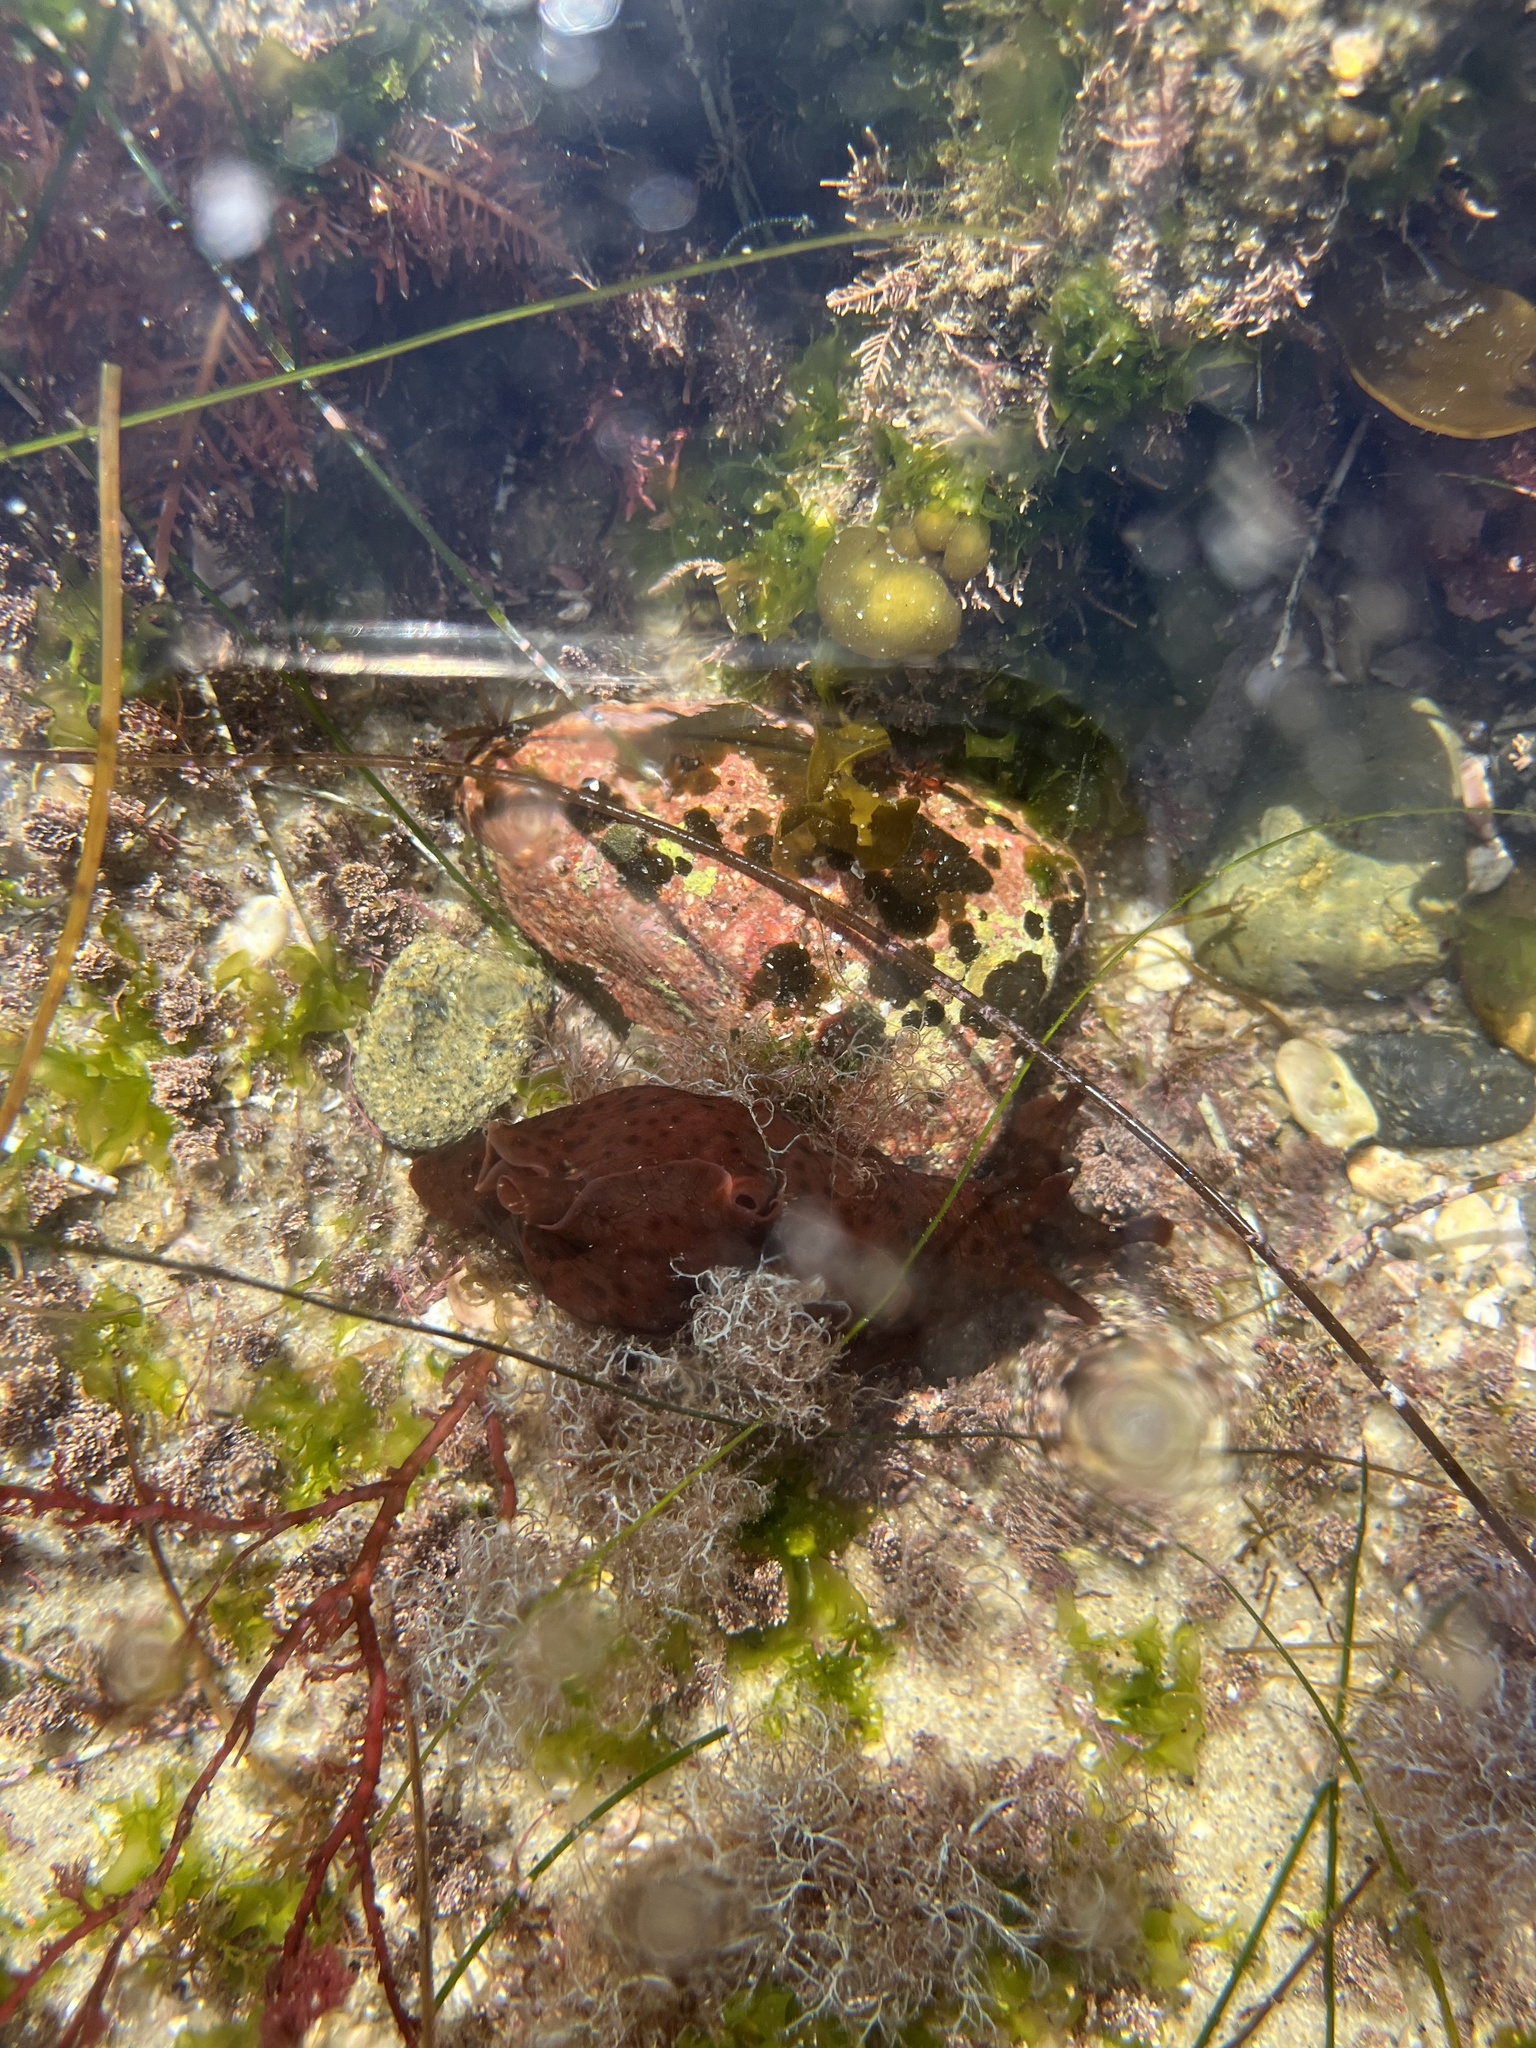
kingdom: Animalia
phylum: Mollusca
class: Gastropoda
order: Aplysiida
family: Aplysiidae
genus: Aplysia
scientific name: Aplysia californica
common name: California seahare
